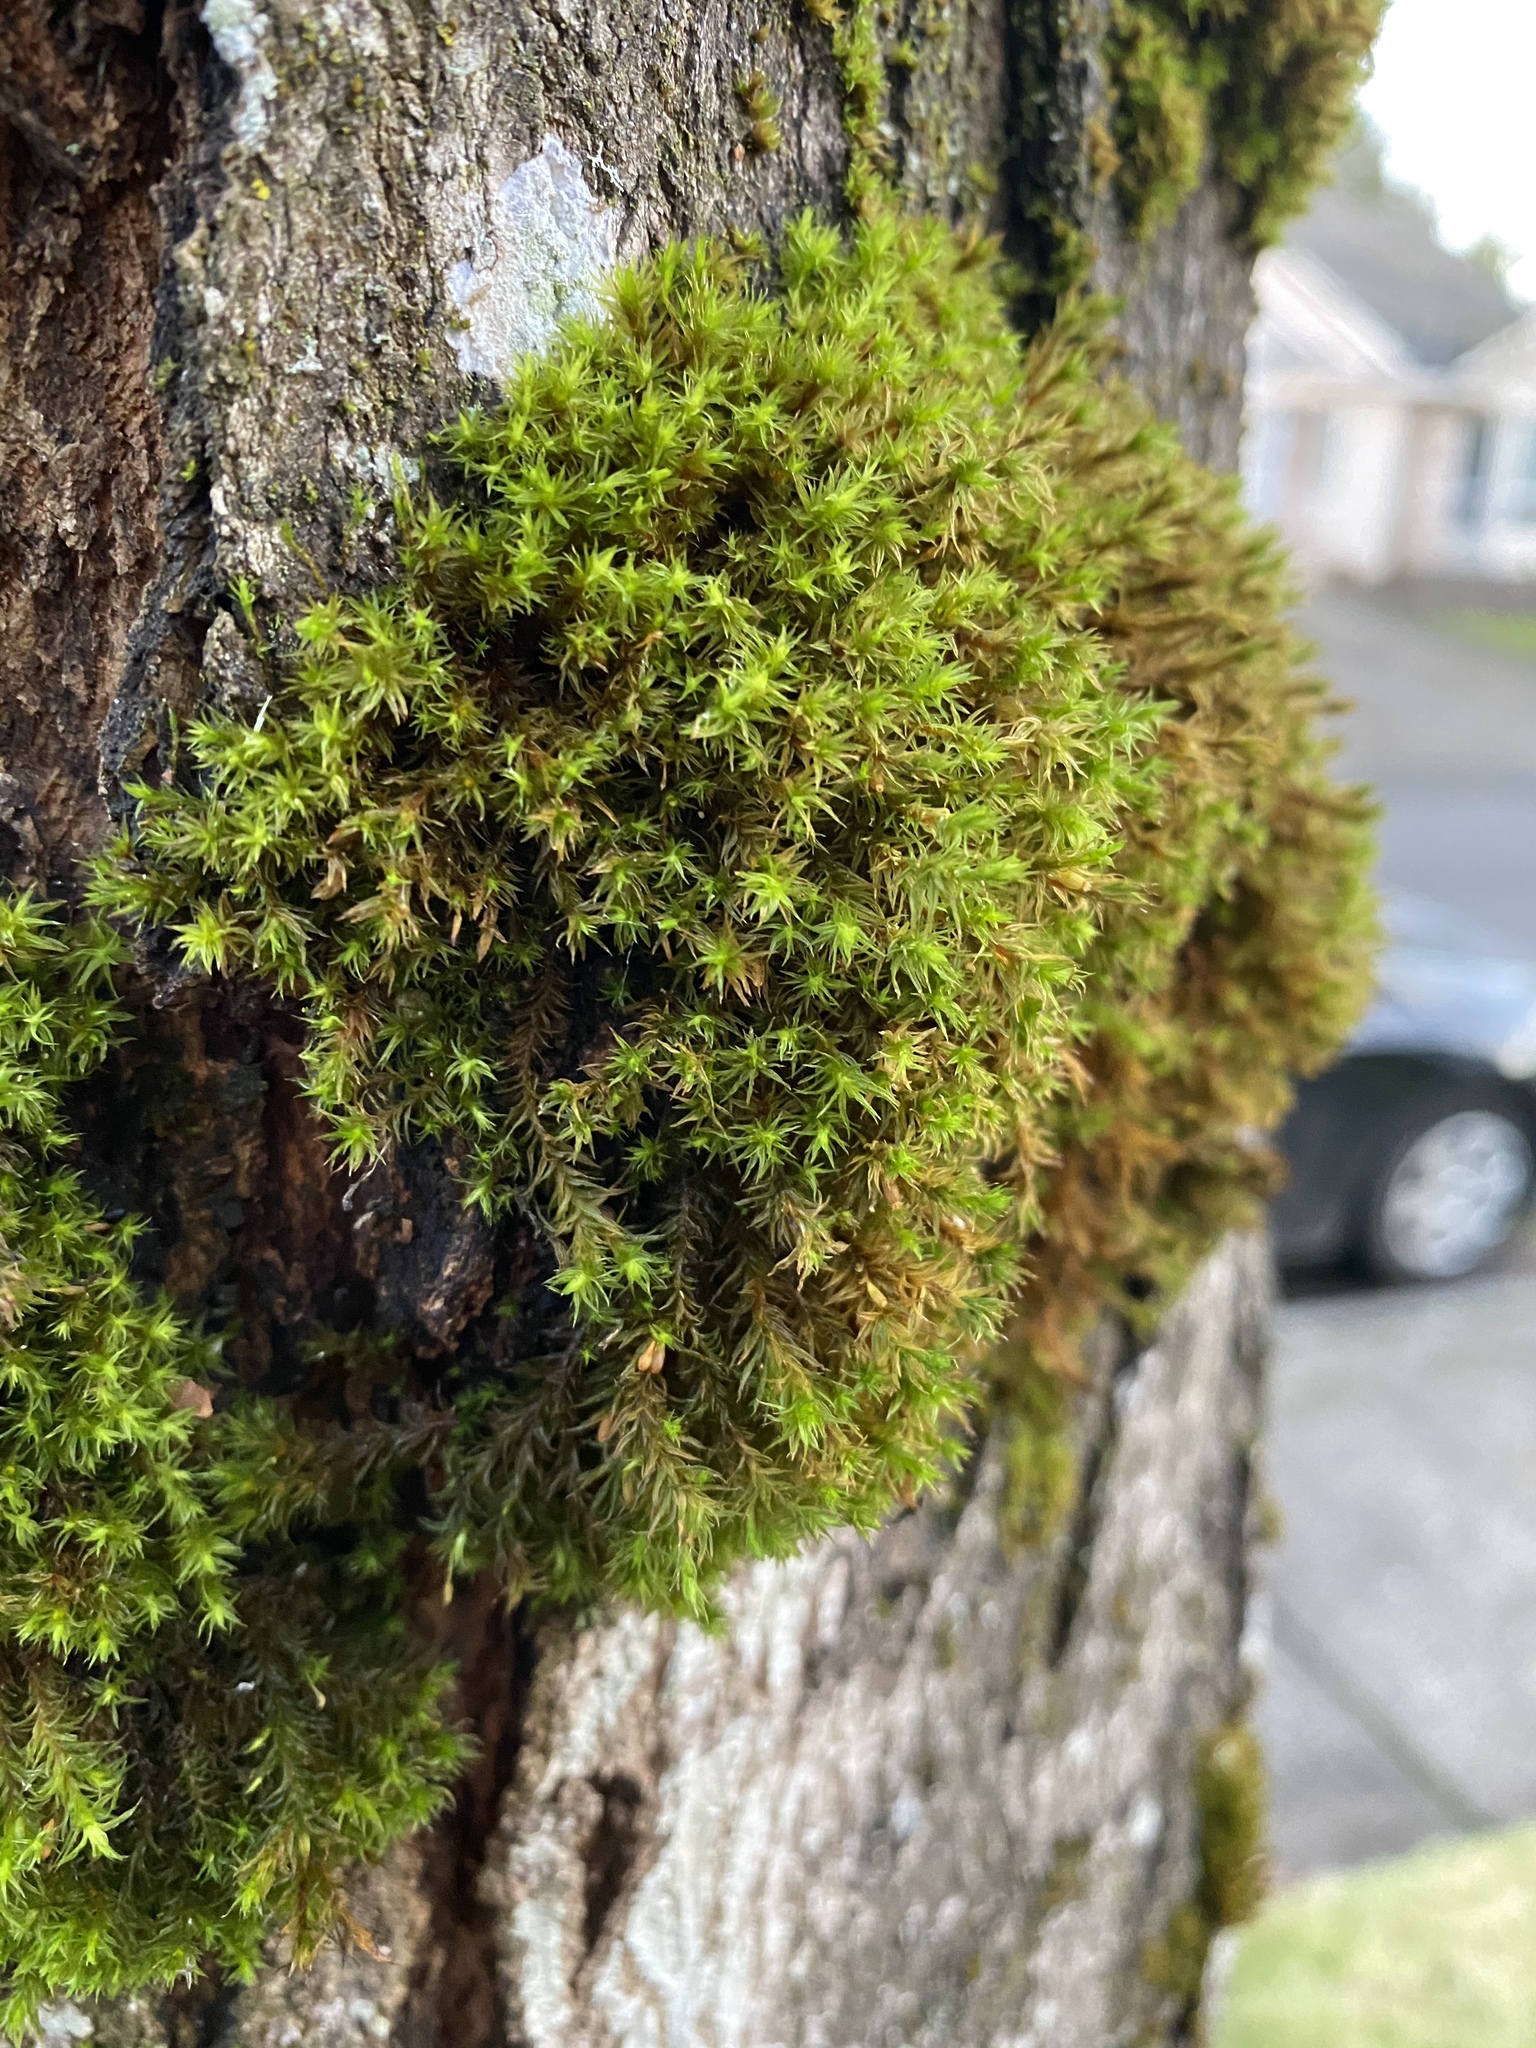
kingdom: Plantae
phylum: Bryophyta
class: Bryopsida
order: Orthotrichales
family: Orthotrichaceae
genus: Pulvigera
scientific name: Pulvigera lyellii
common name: Lyell's bristle-moss
